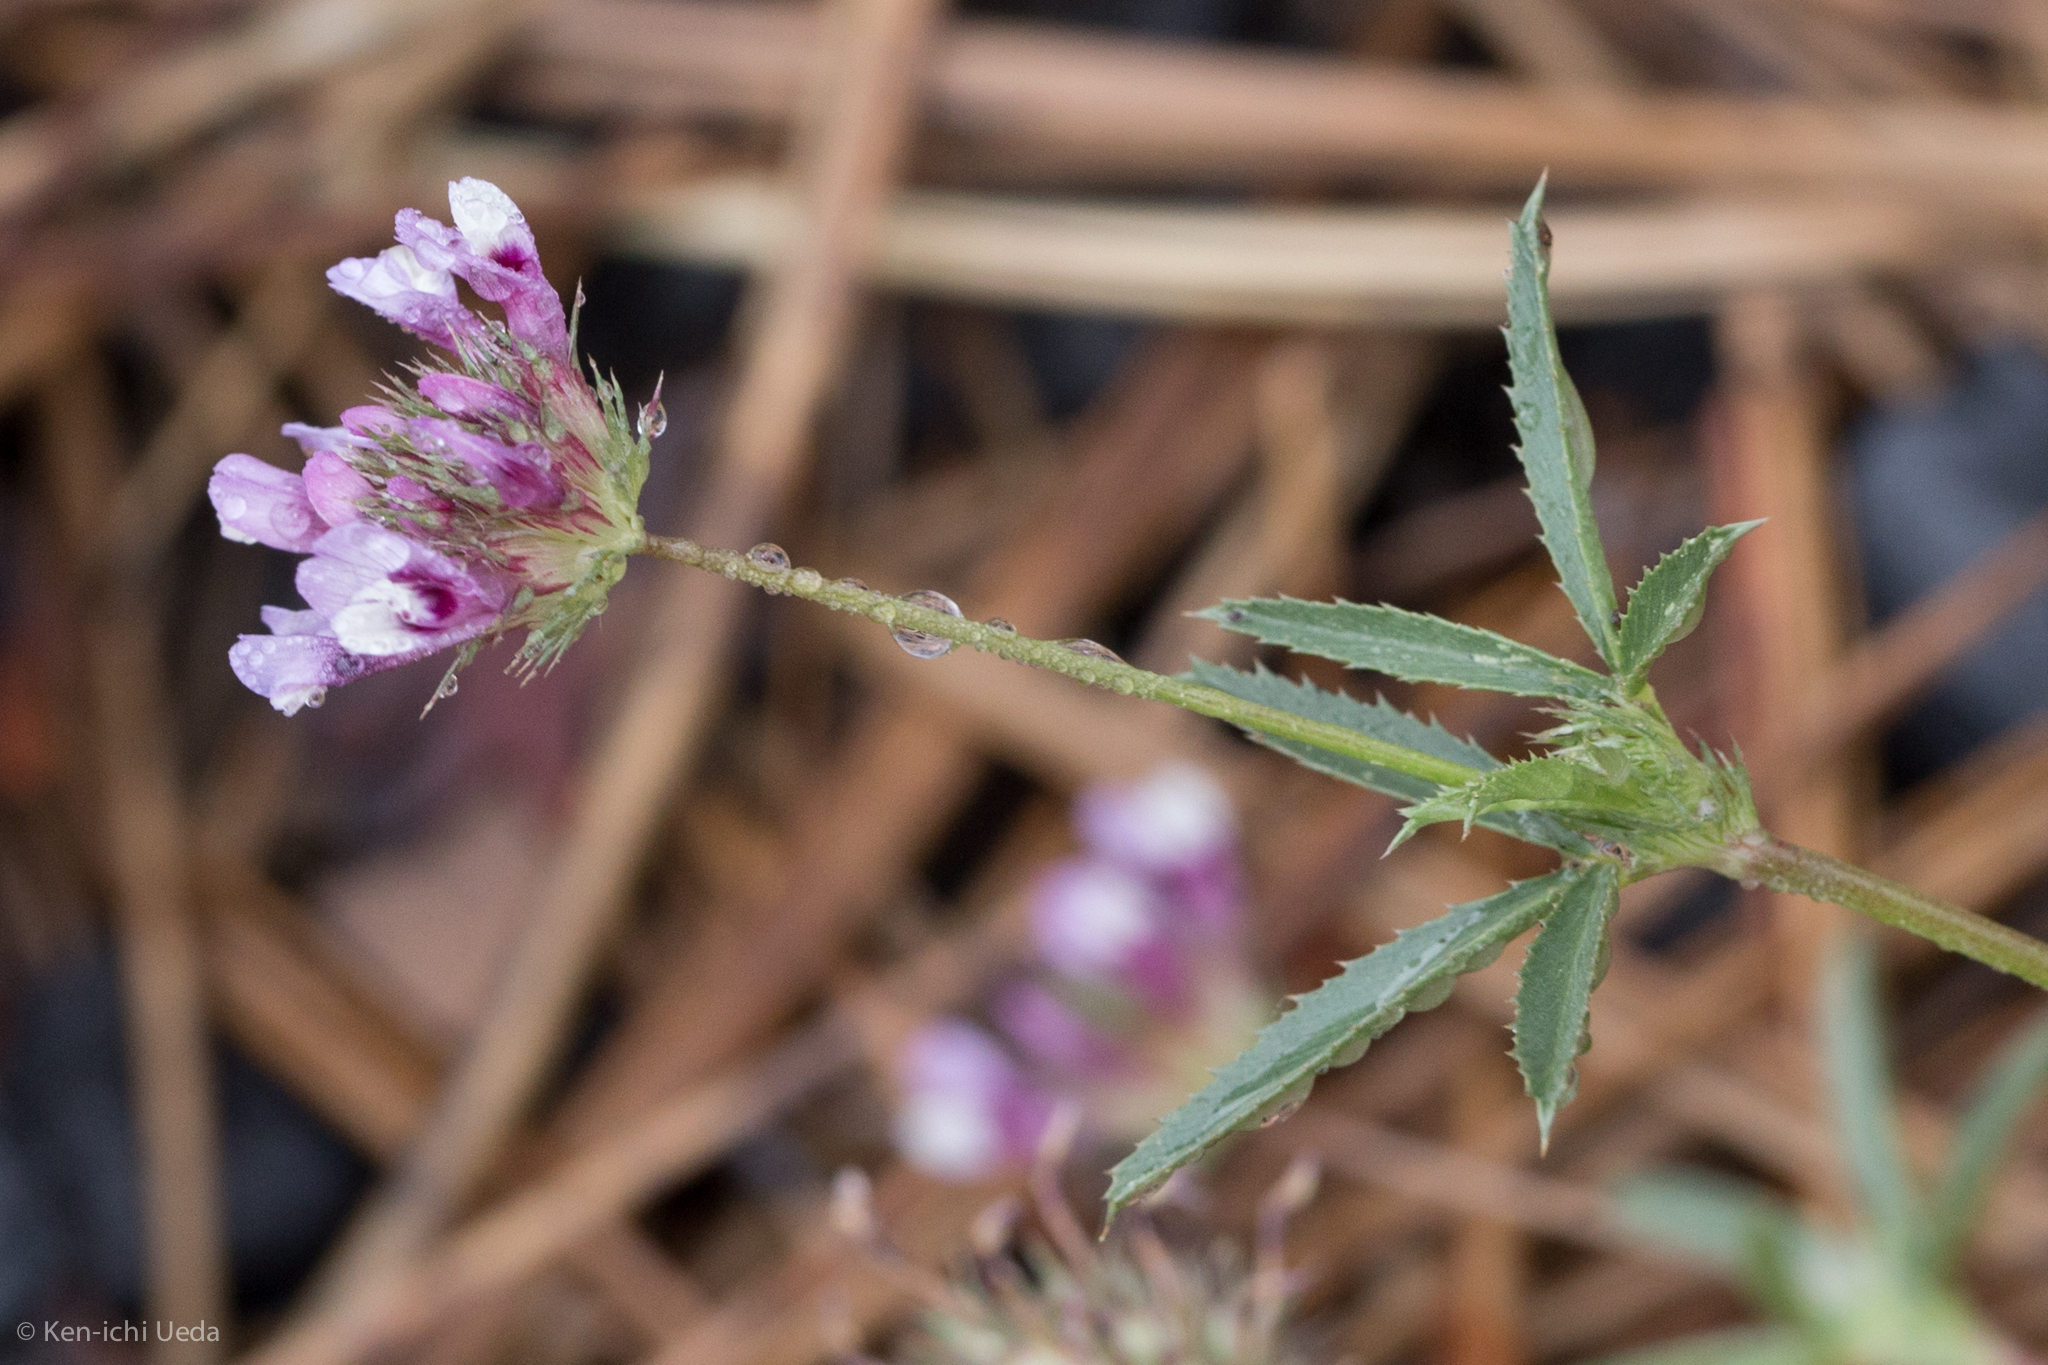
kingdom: Plantae
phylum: Tracheophyta
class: Magnoliopsida
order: Fabales
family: Fabaceae
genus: Trifolium
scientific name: Trifolium willdenovii
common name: Tomcat clover
